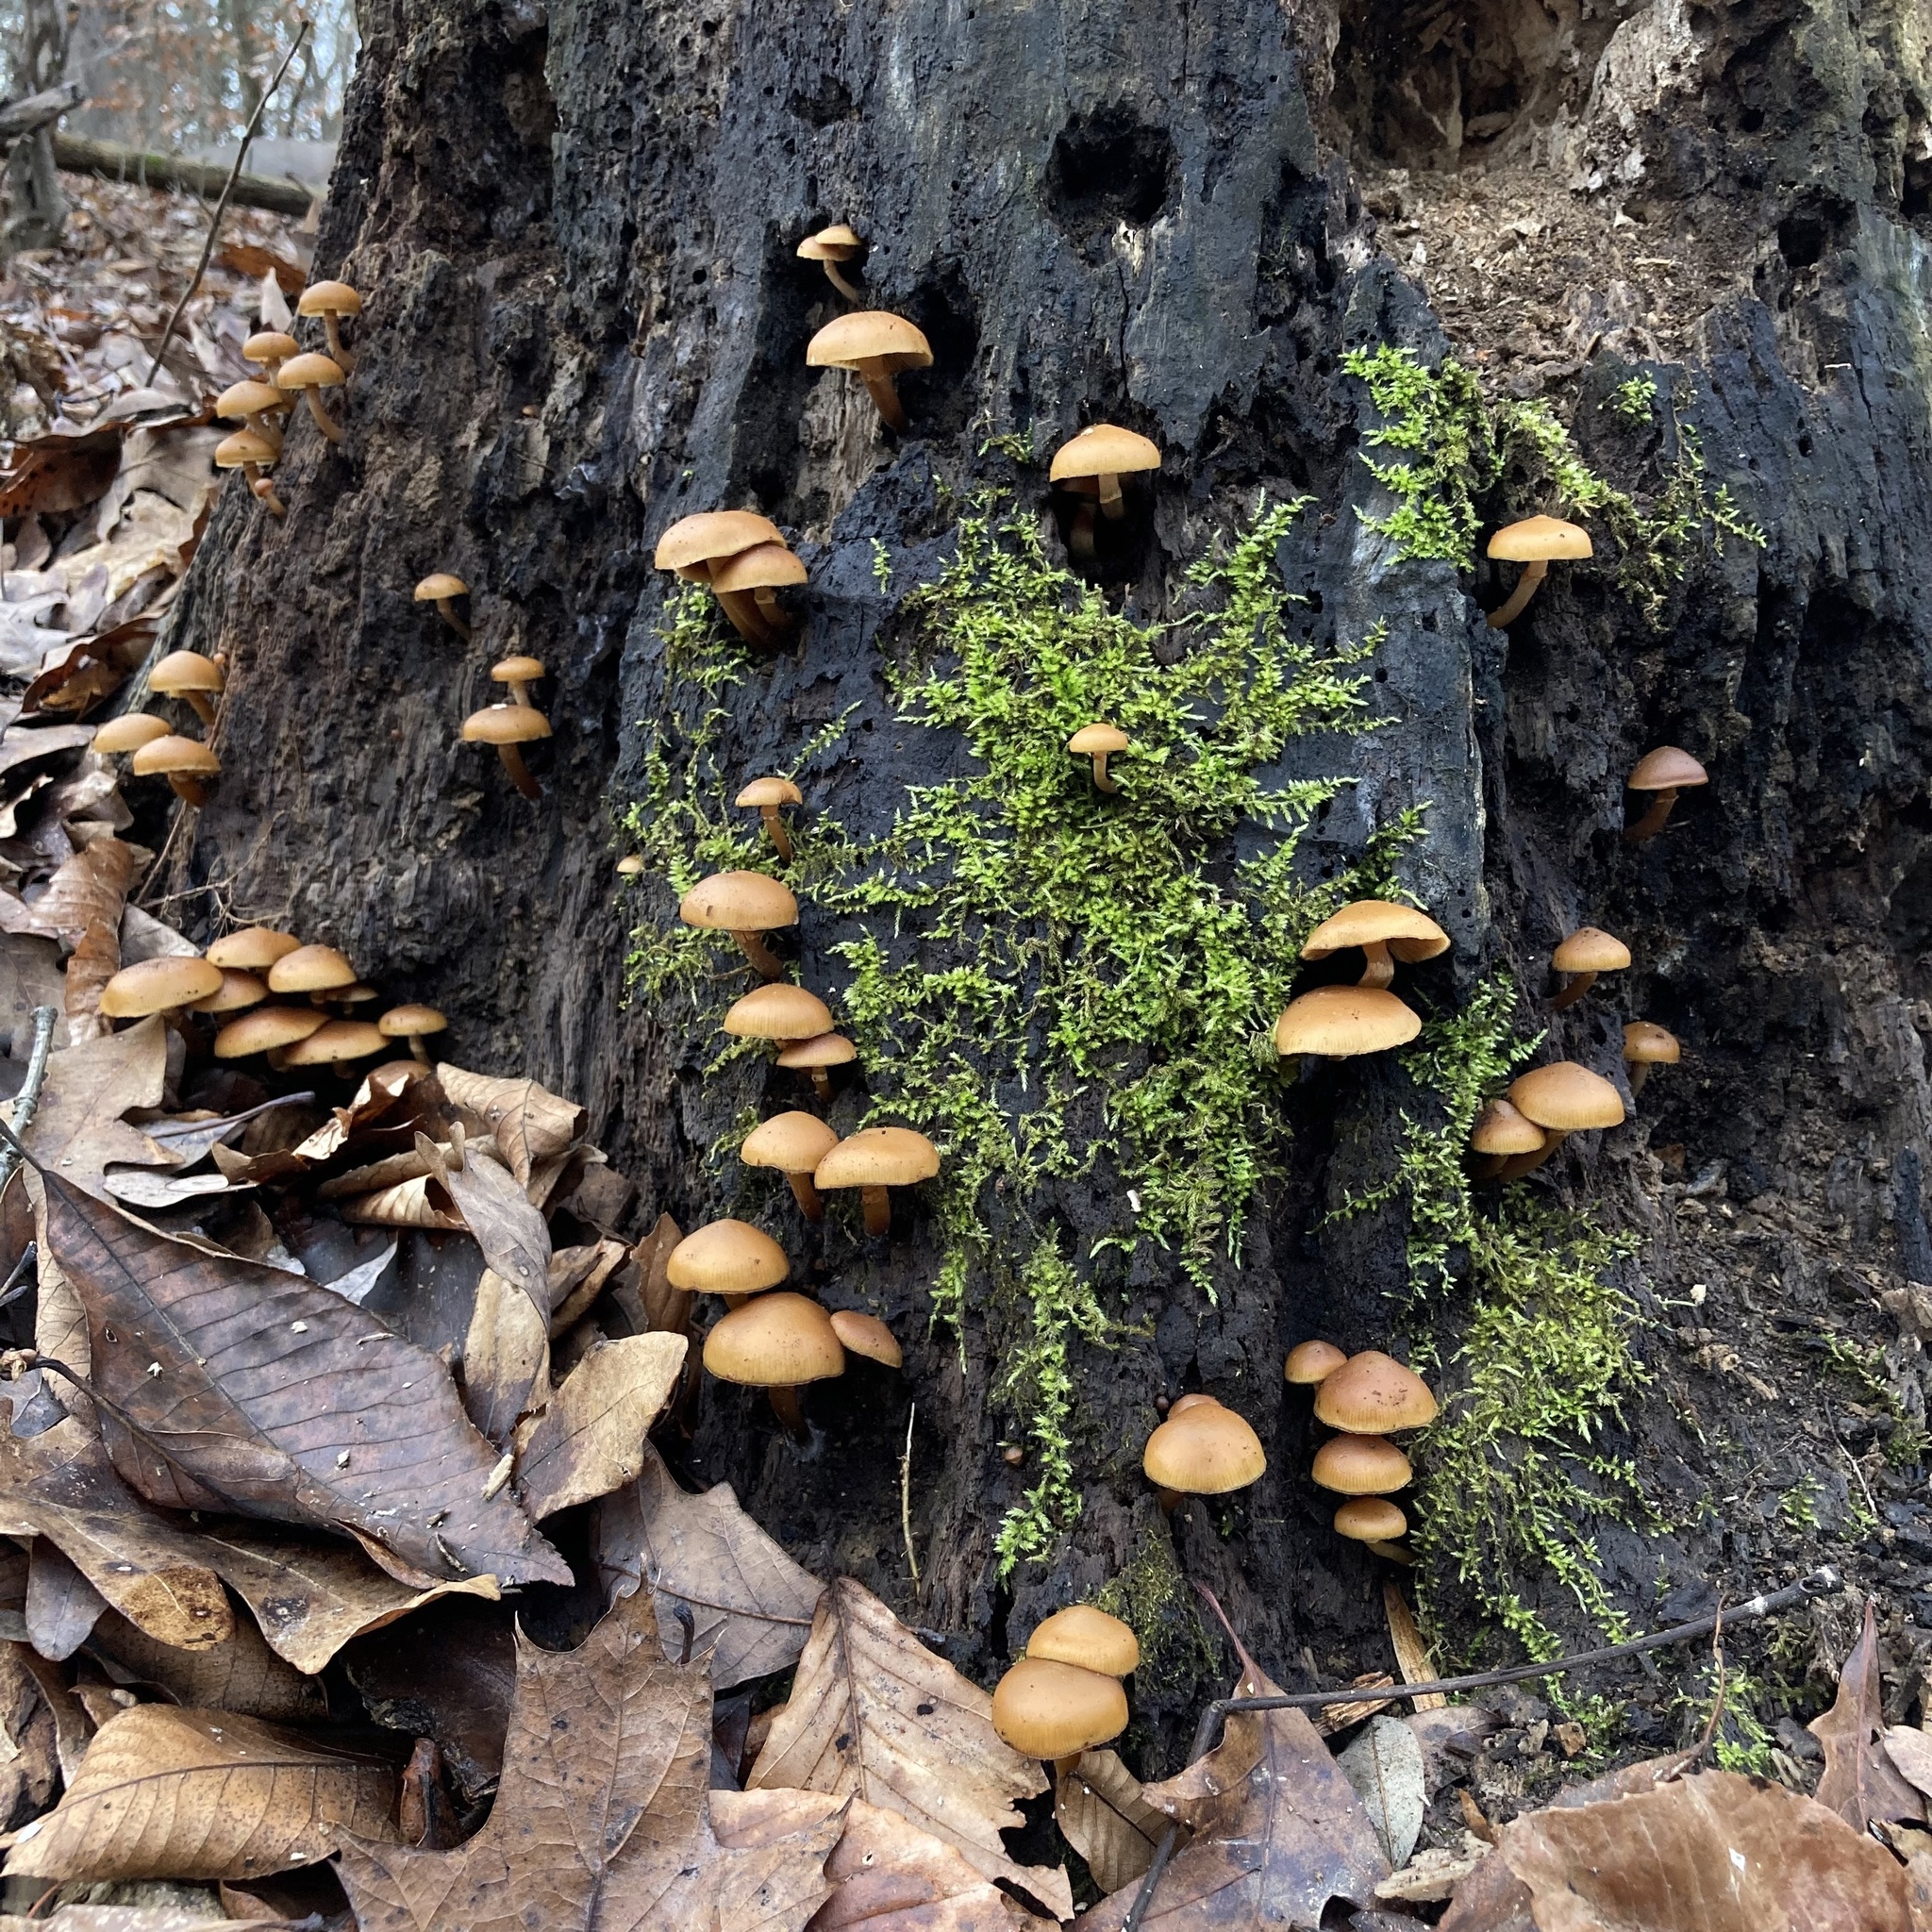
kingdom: Fungi
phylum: Basidiomycota
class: Agaricomycetes
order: Agaricales
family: Hymenogastraceae
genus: Galerina
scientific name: Galerina marginata
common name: Funeral bell
